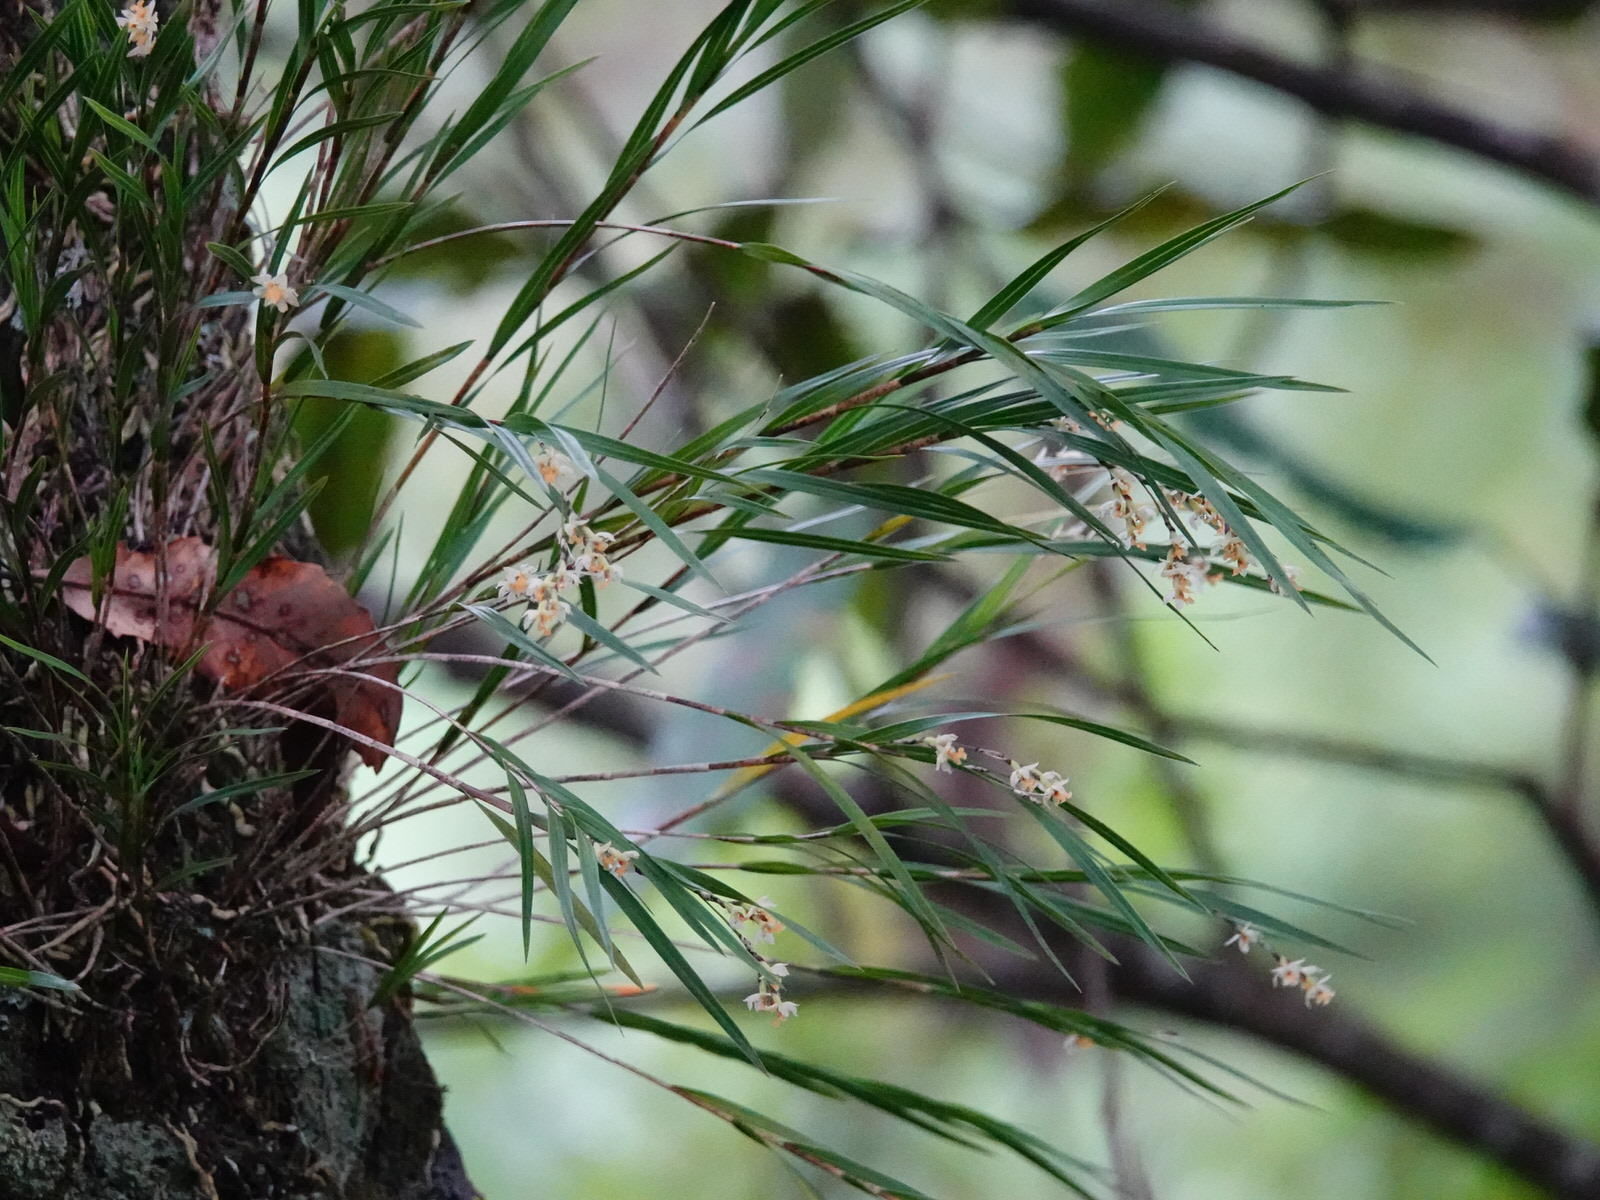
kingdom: Plantae
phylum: Tracheophyta
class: Liliopsida
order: Asparagales
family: Orchidaceae
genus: Earina
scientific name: Earina mucronata
